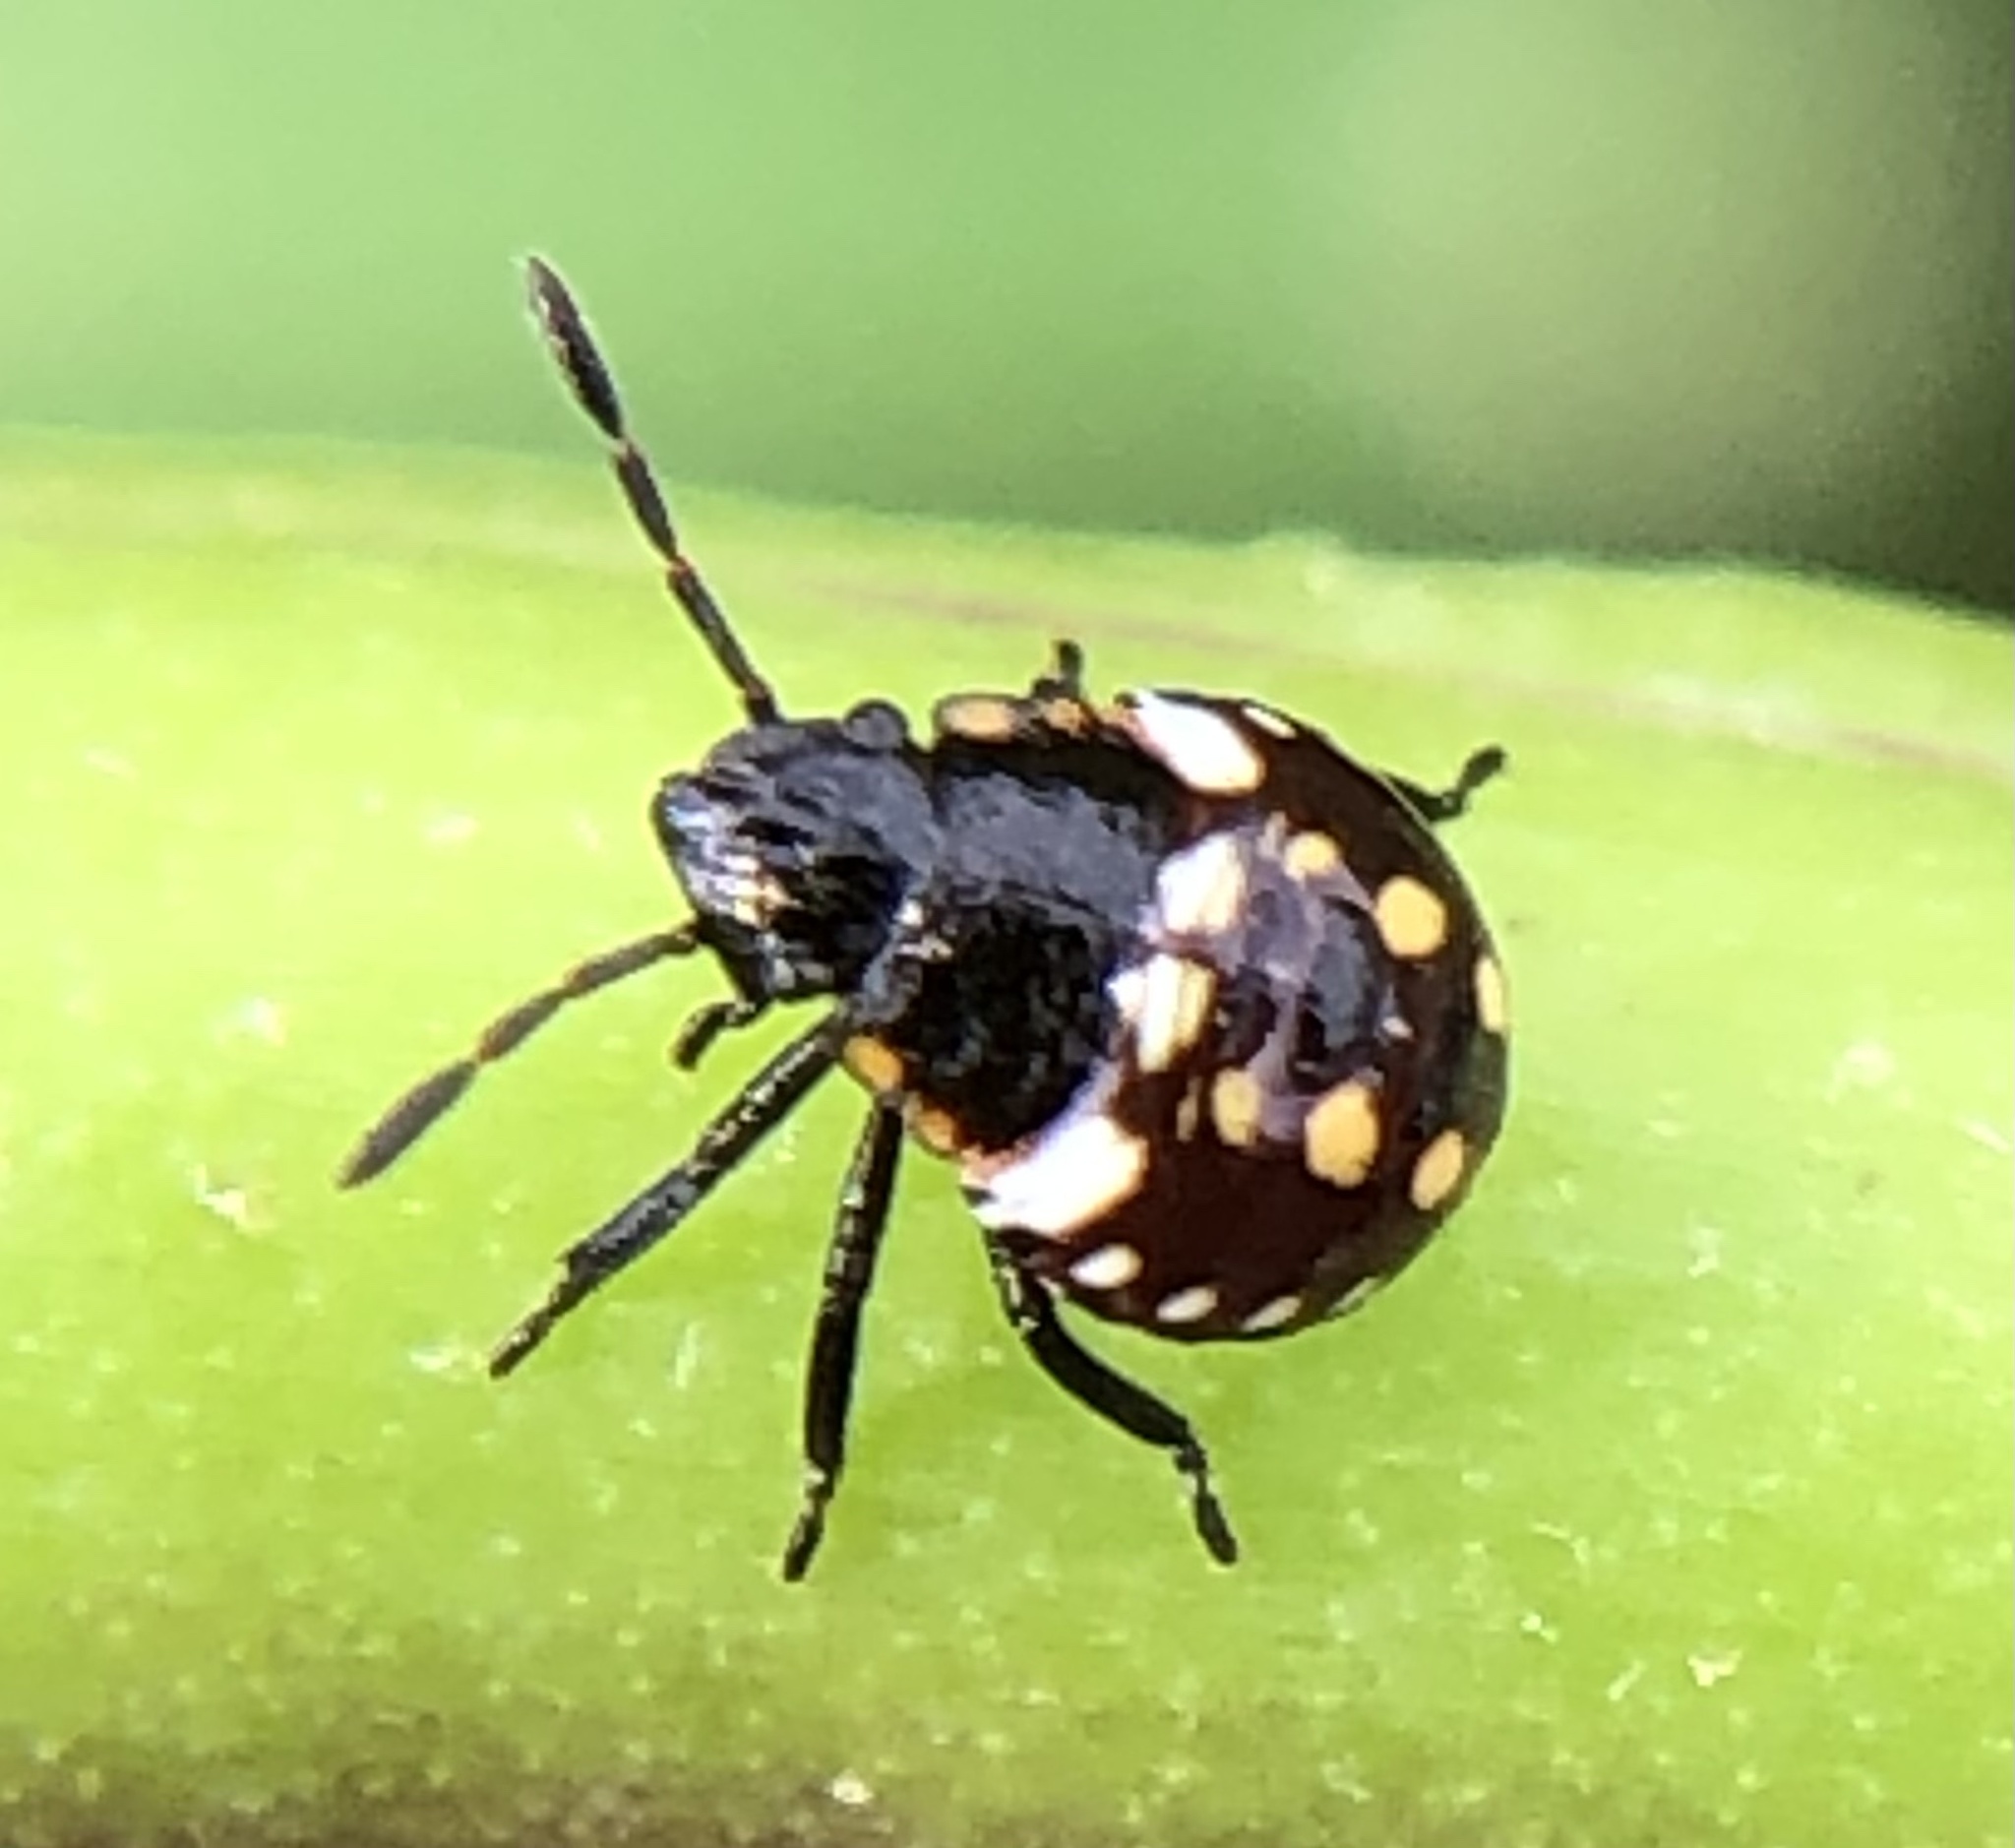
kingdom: Animalia
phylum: Arthropoda
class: Insecta
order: Hemiptera
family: Pentatomidae
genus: Nezara
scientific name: Nezara viridula
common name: Southern green stink bug
